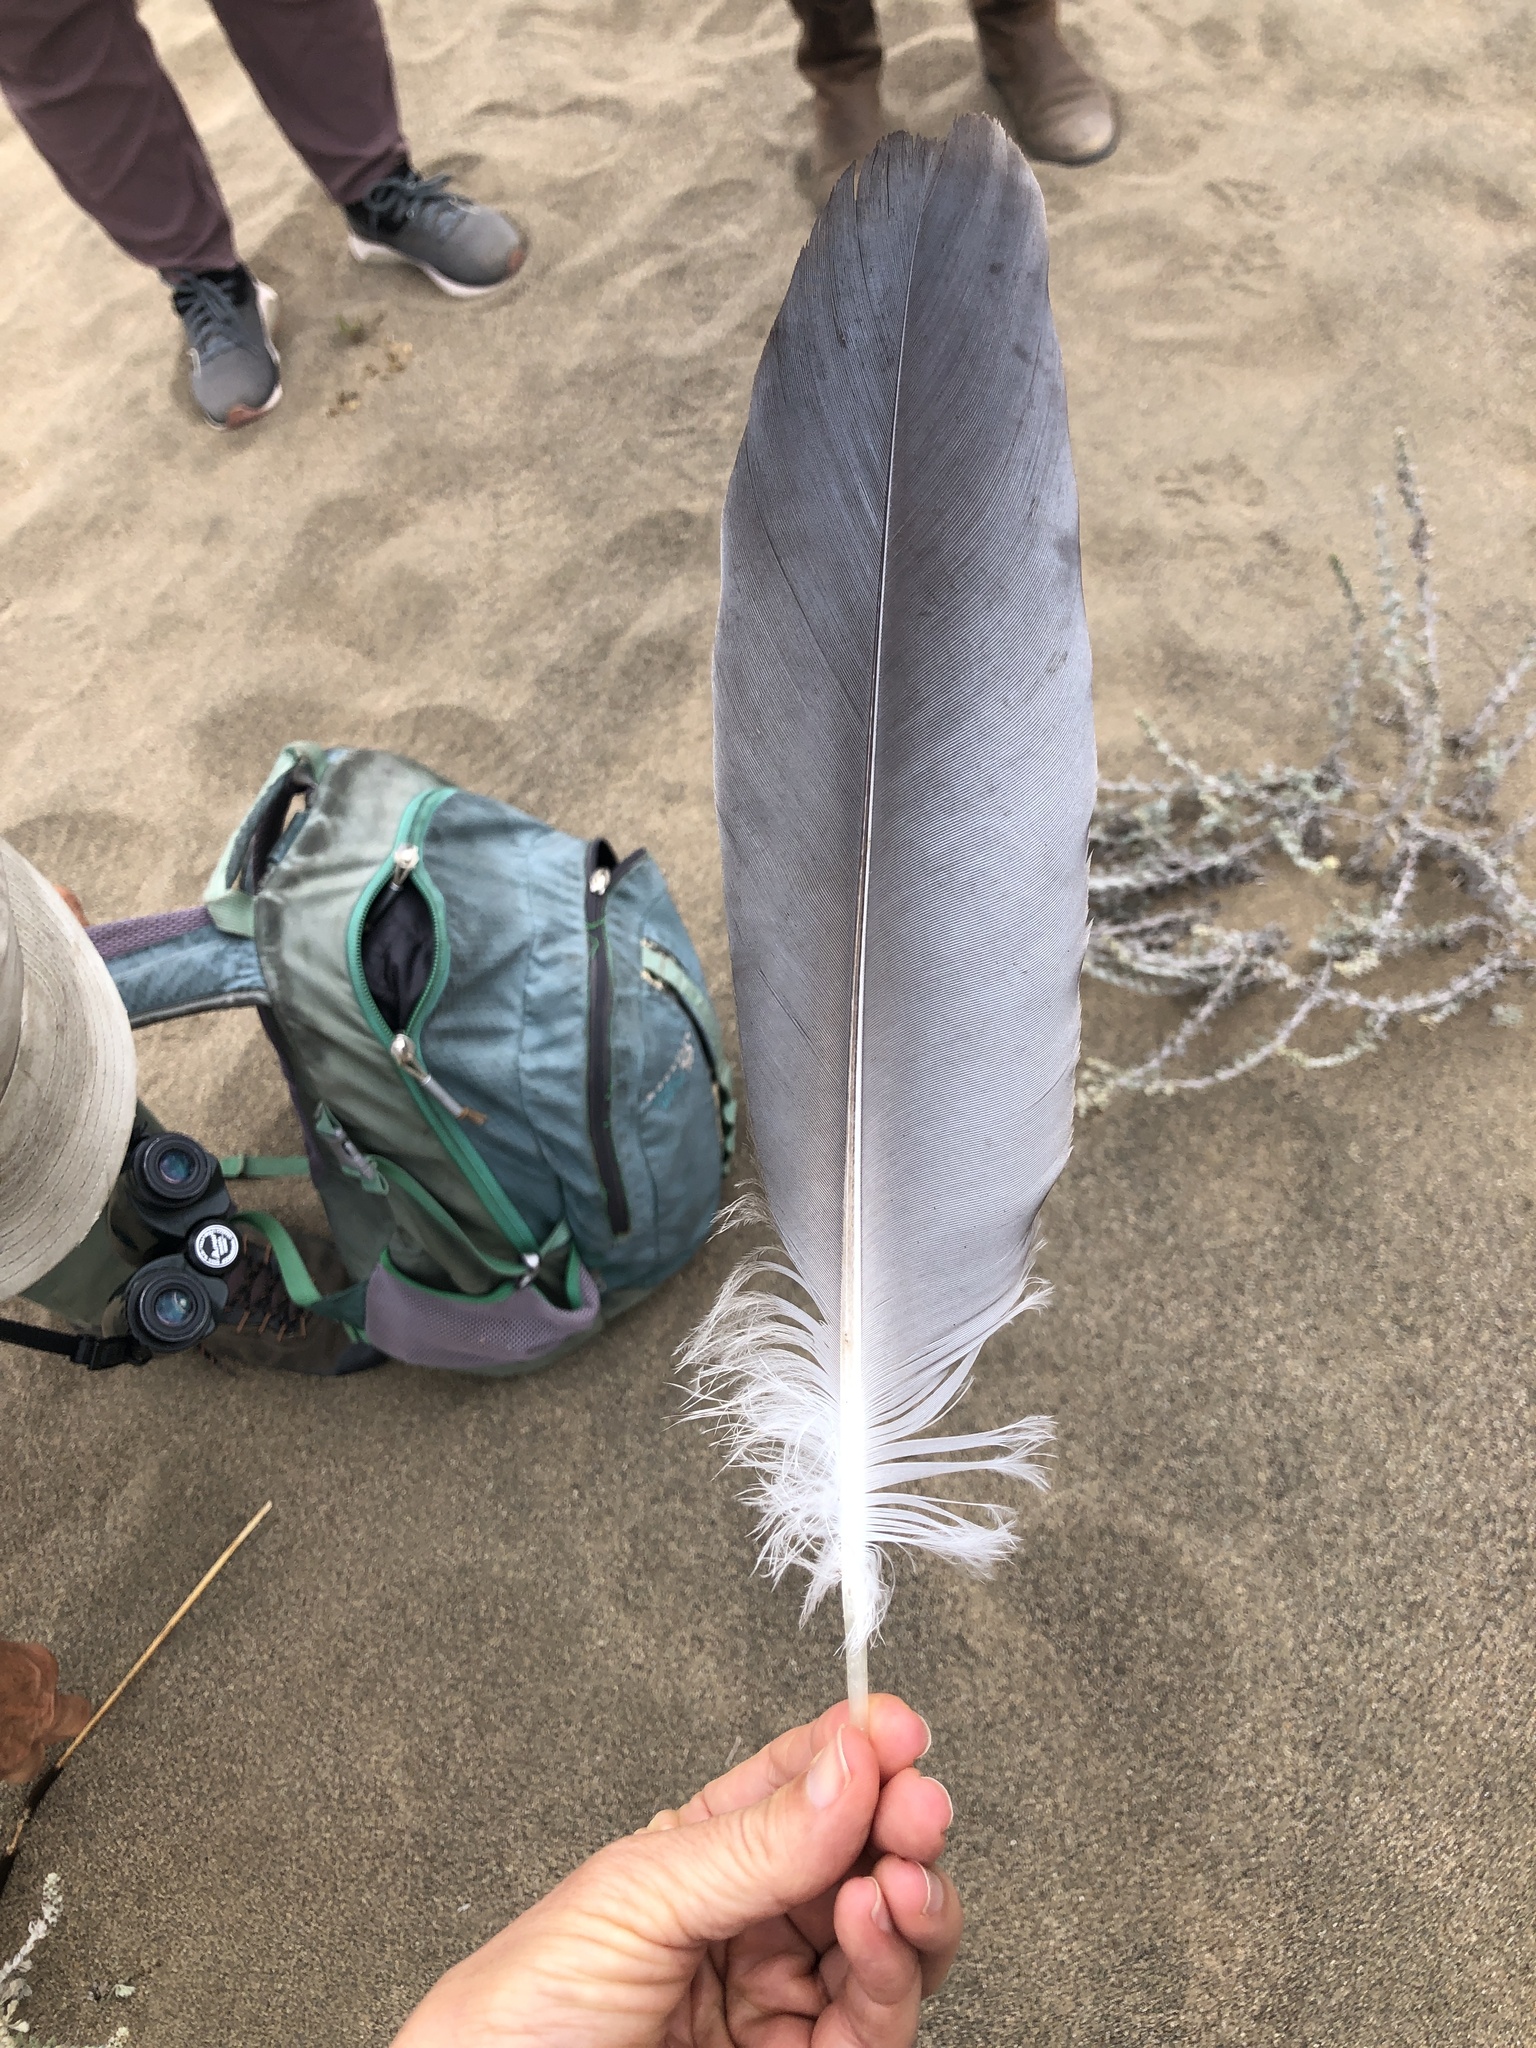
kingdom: Animalia
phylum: Chordata
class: Aves
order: Pelecaniformes
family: Ardeidae
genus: Ardea
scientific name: Ardea herodias
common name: Great blue heron
